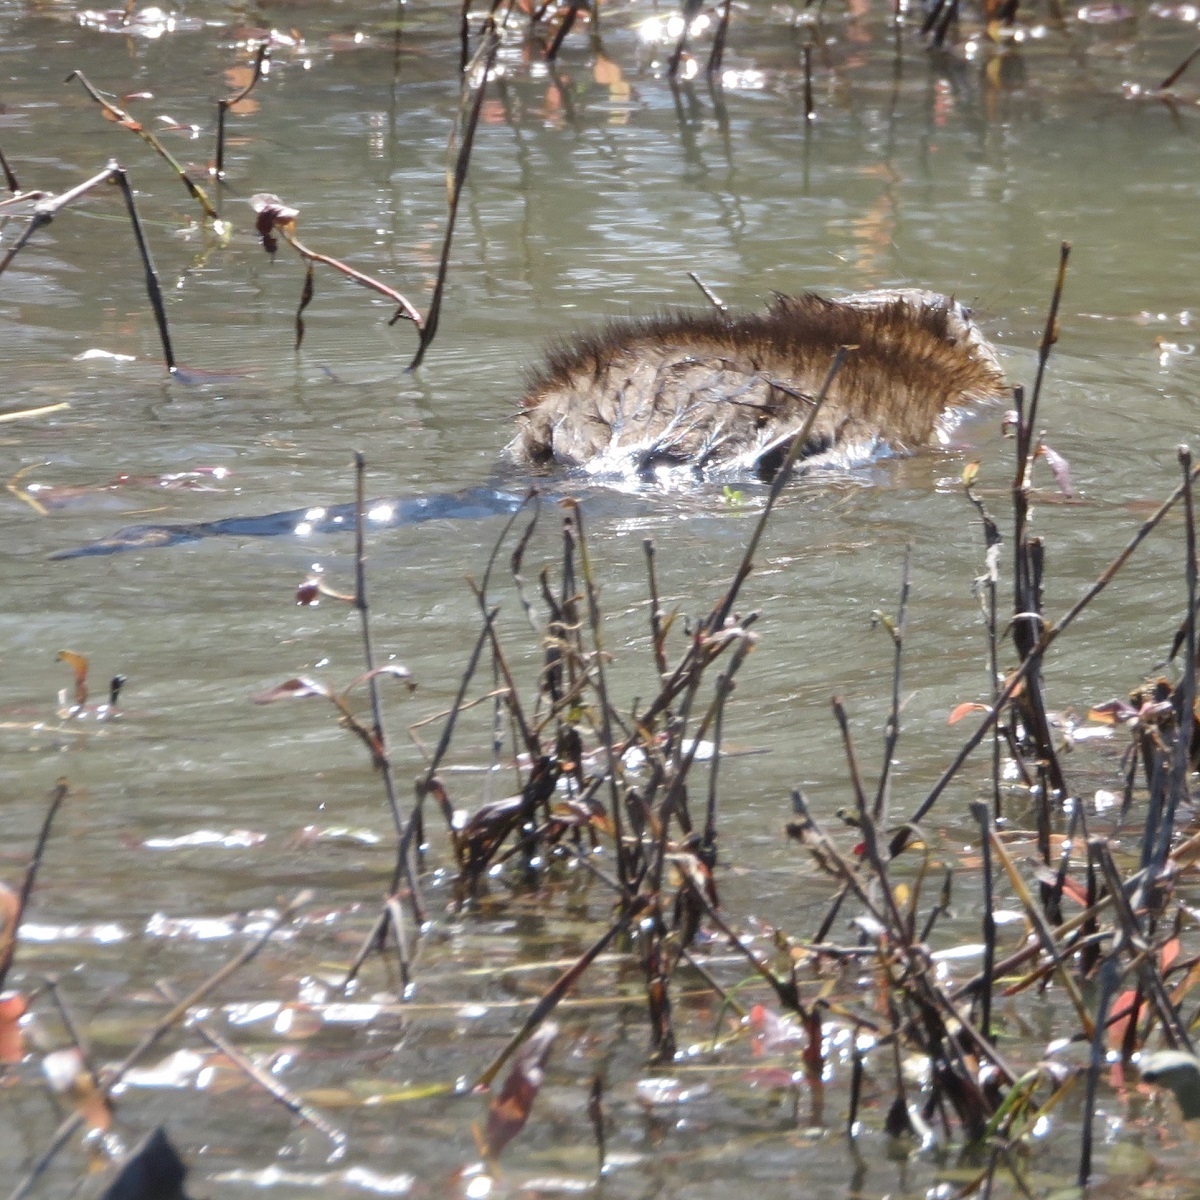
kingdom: Animalia
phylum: Chordata
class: Mammalia
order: Rodentia
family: Cricetidae
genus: Ondatra
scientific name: Ondatra zibethicus
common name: Muskrat
